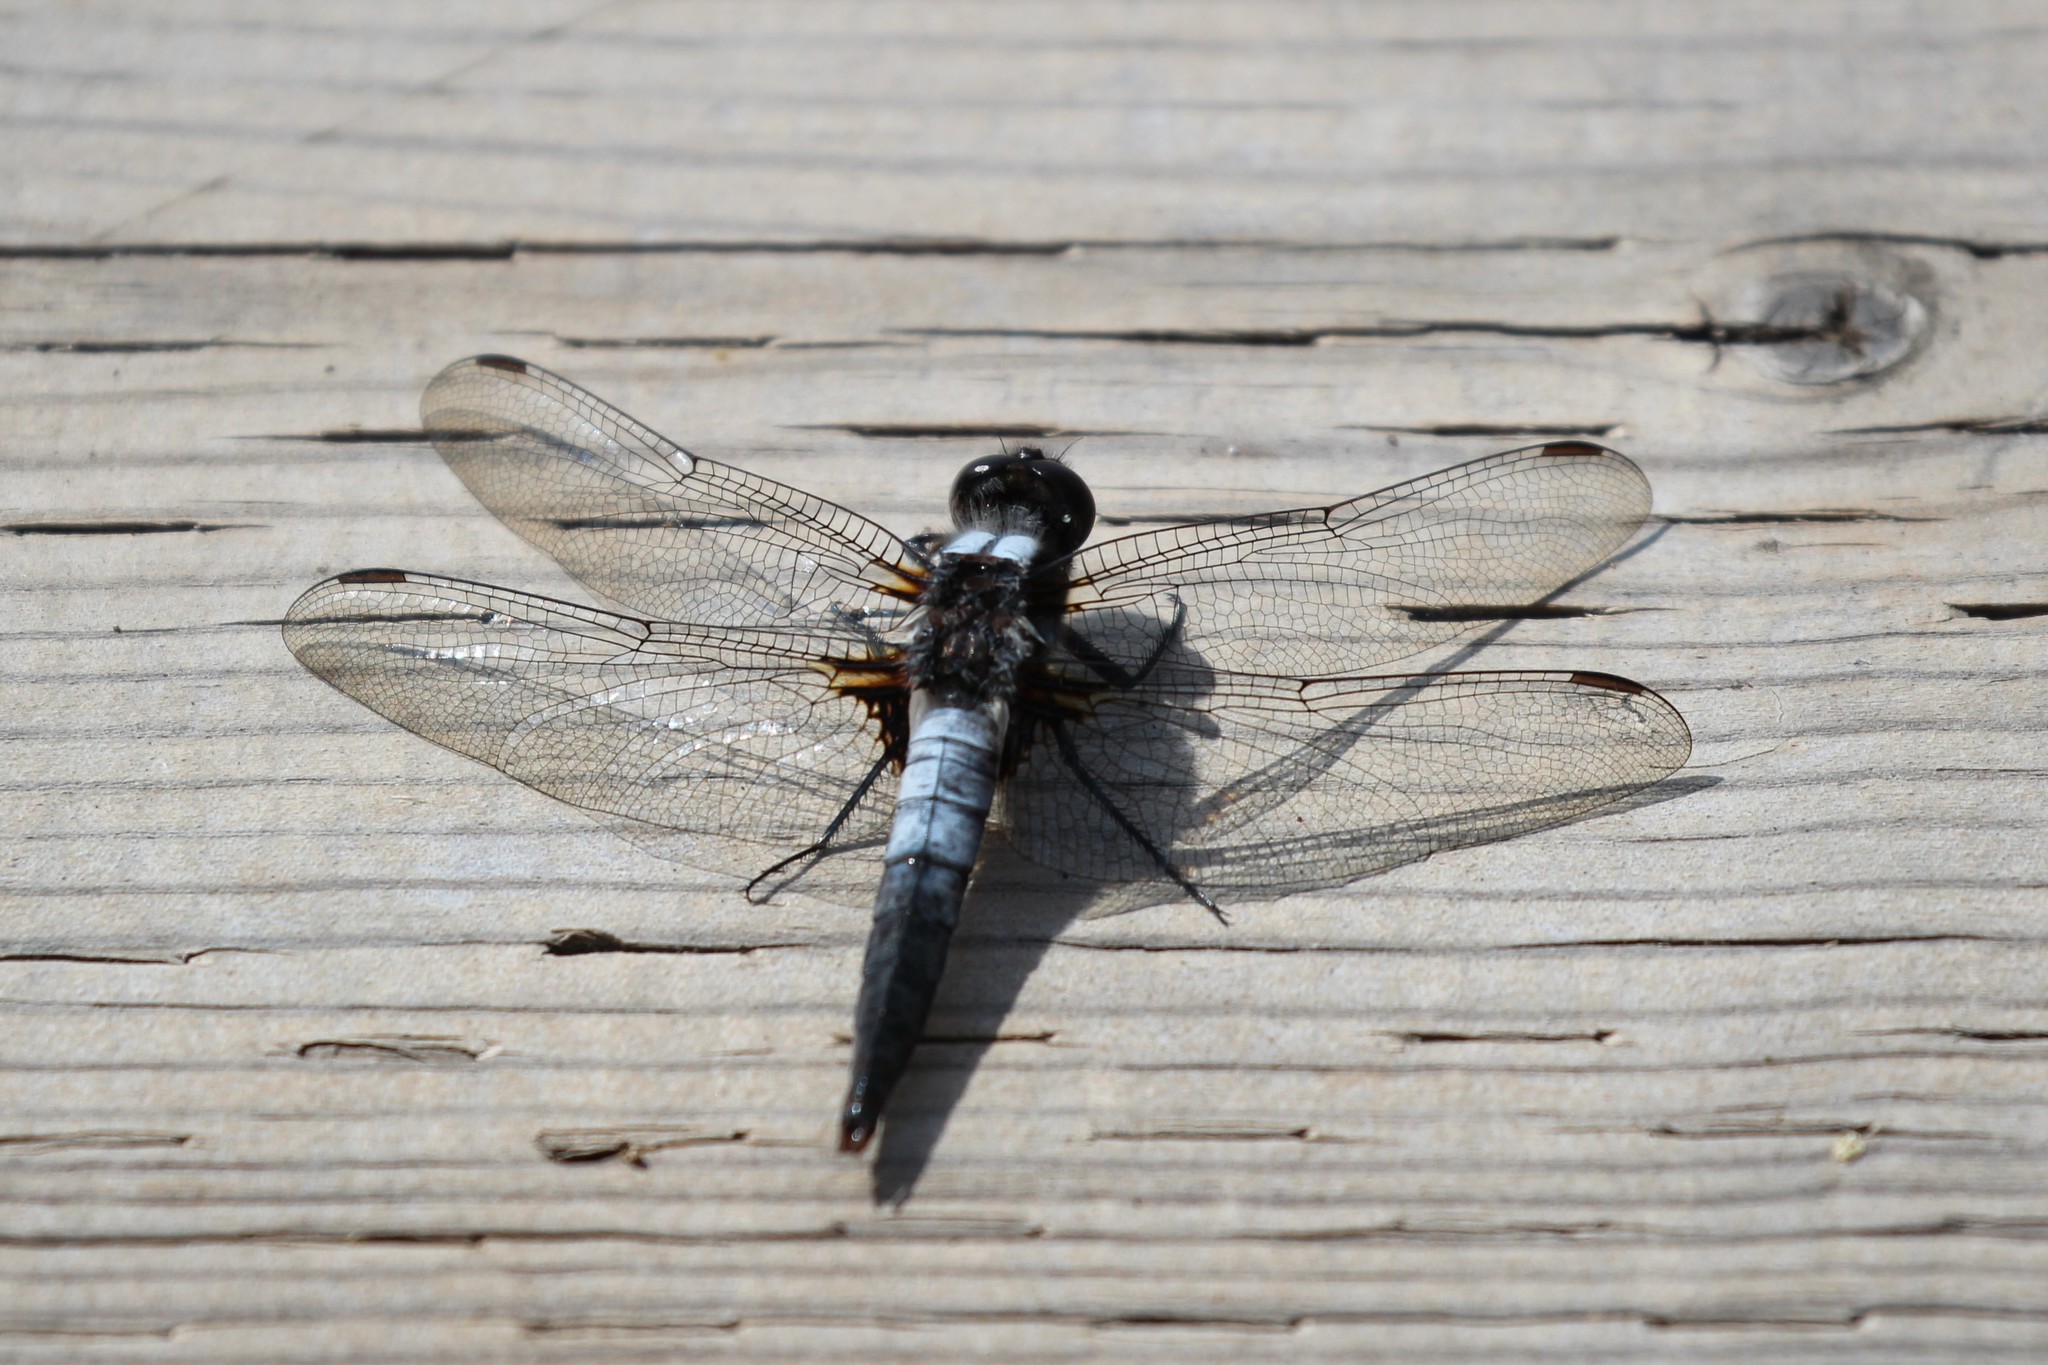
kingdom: Animalia
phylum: Arthropoda
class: Insecta
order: Odonata
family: Libellulidae
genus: Ladona
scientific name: Ladona julia
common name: Chalk-fronted corporal
